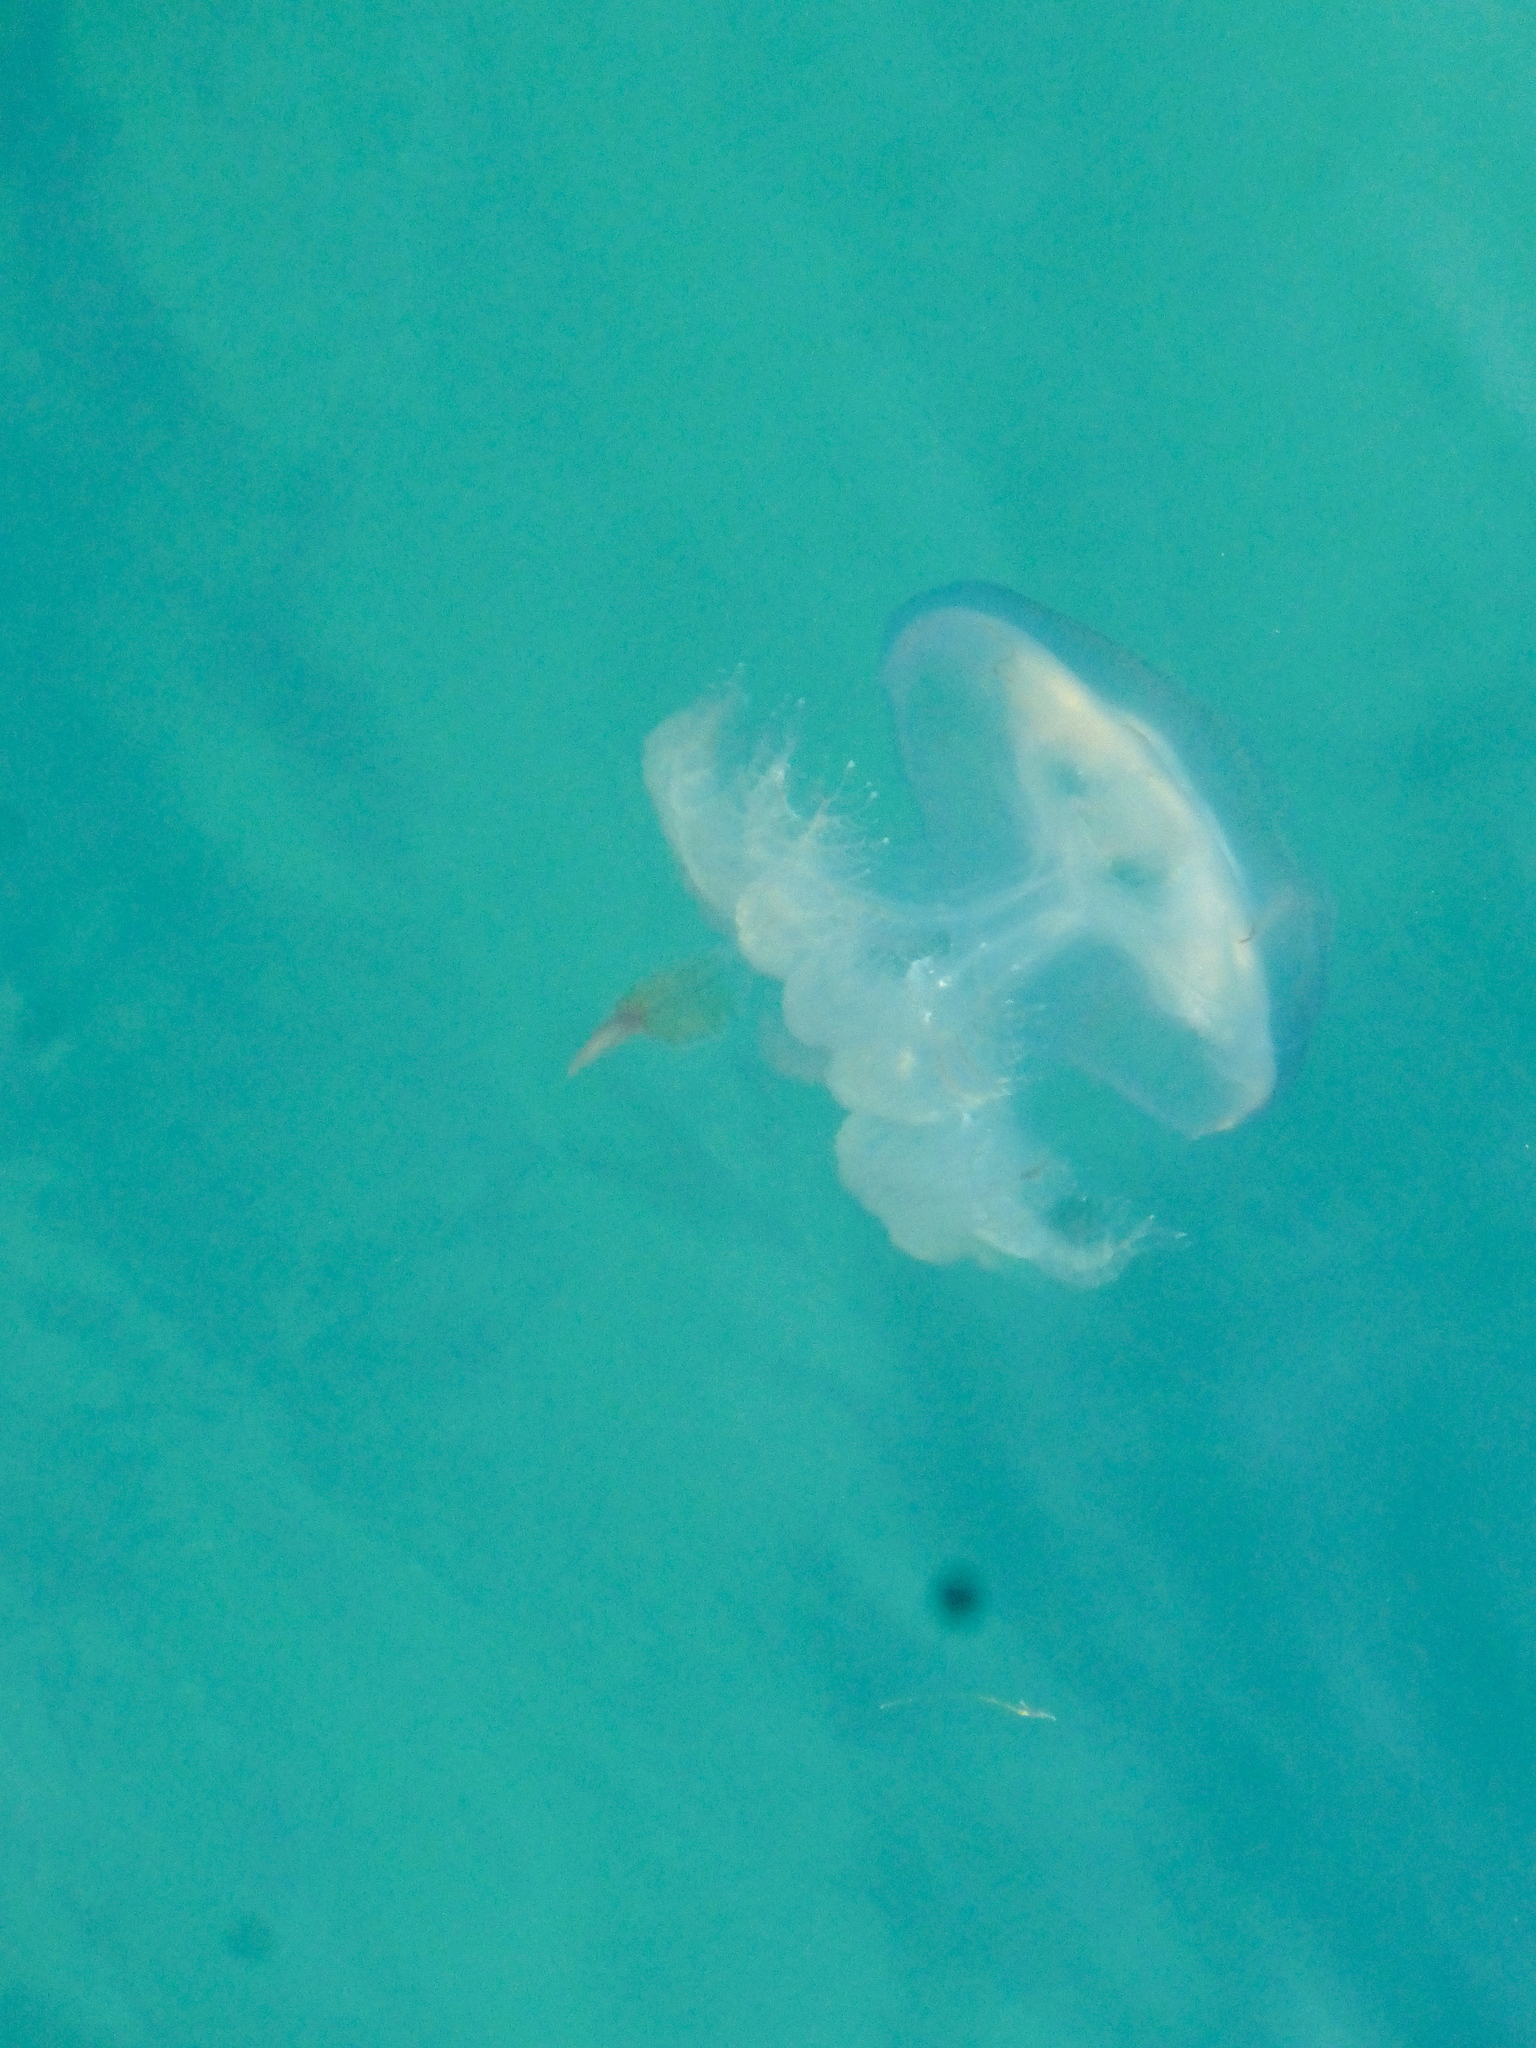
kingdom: Animalia
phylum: Cnidaria
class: Scyphozoa
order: Rhizostomeae
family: Lychnorhizidae
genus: Pseudorhiza
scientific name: Pseudorhiza haeckeli
